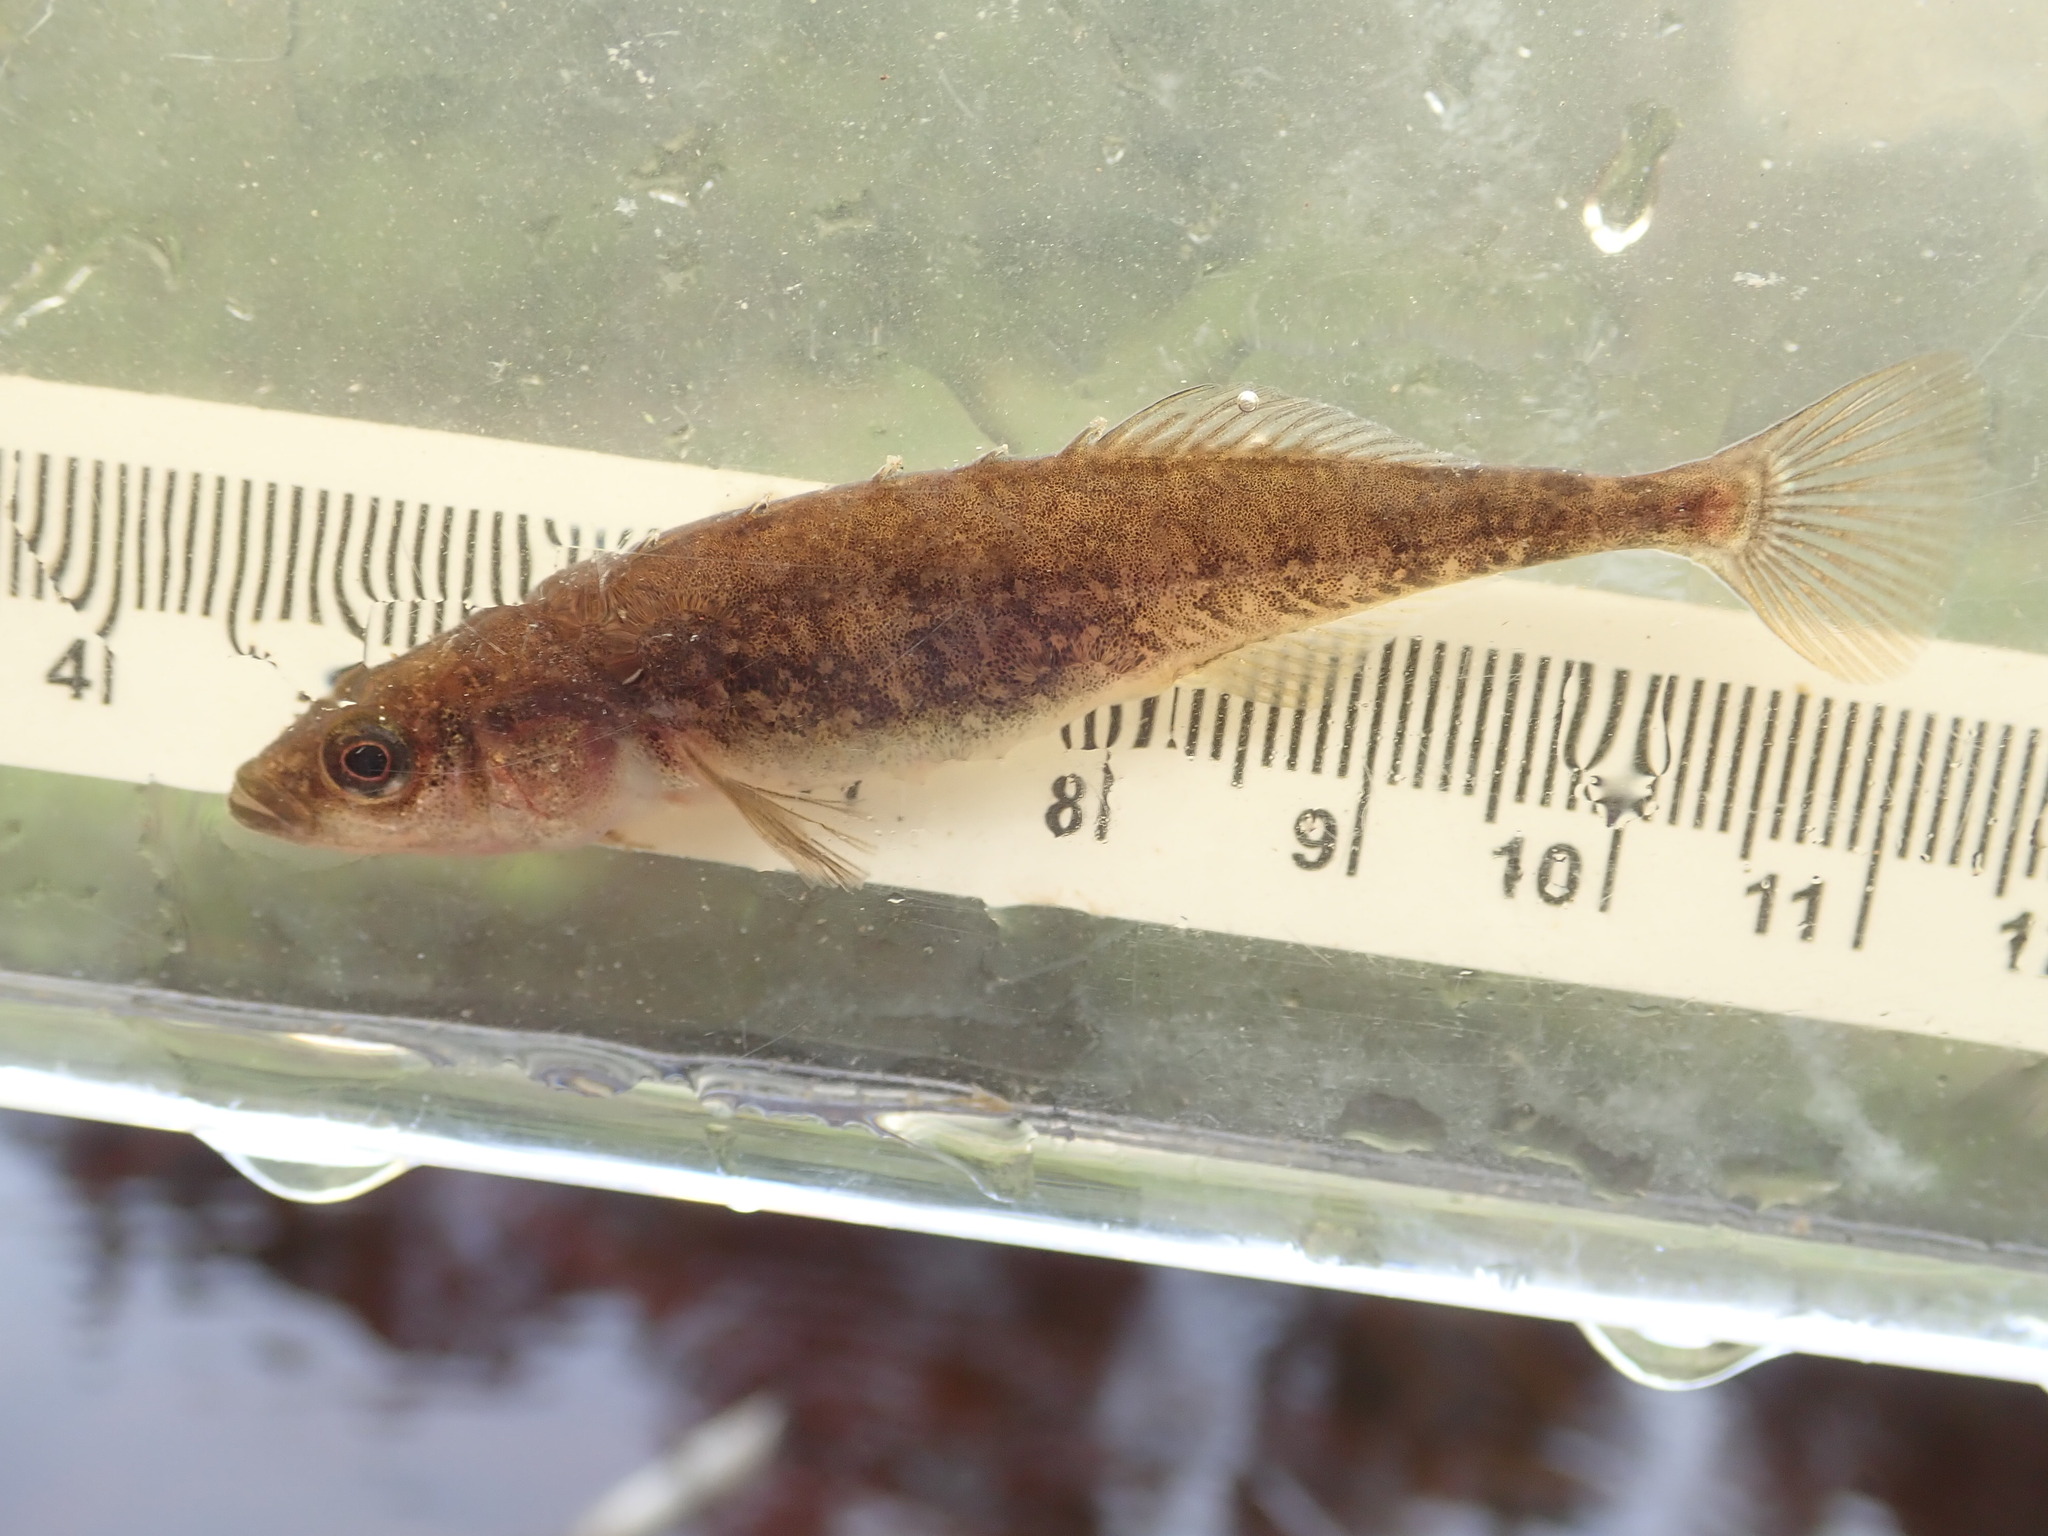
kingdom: Animalia
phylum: Chordata
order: Gasterosteiformes
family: Gasterosteidae
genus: Culaea
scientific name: Culaea inconstans
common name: Brook stickleback
